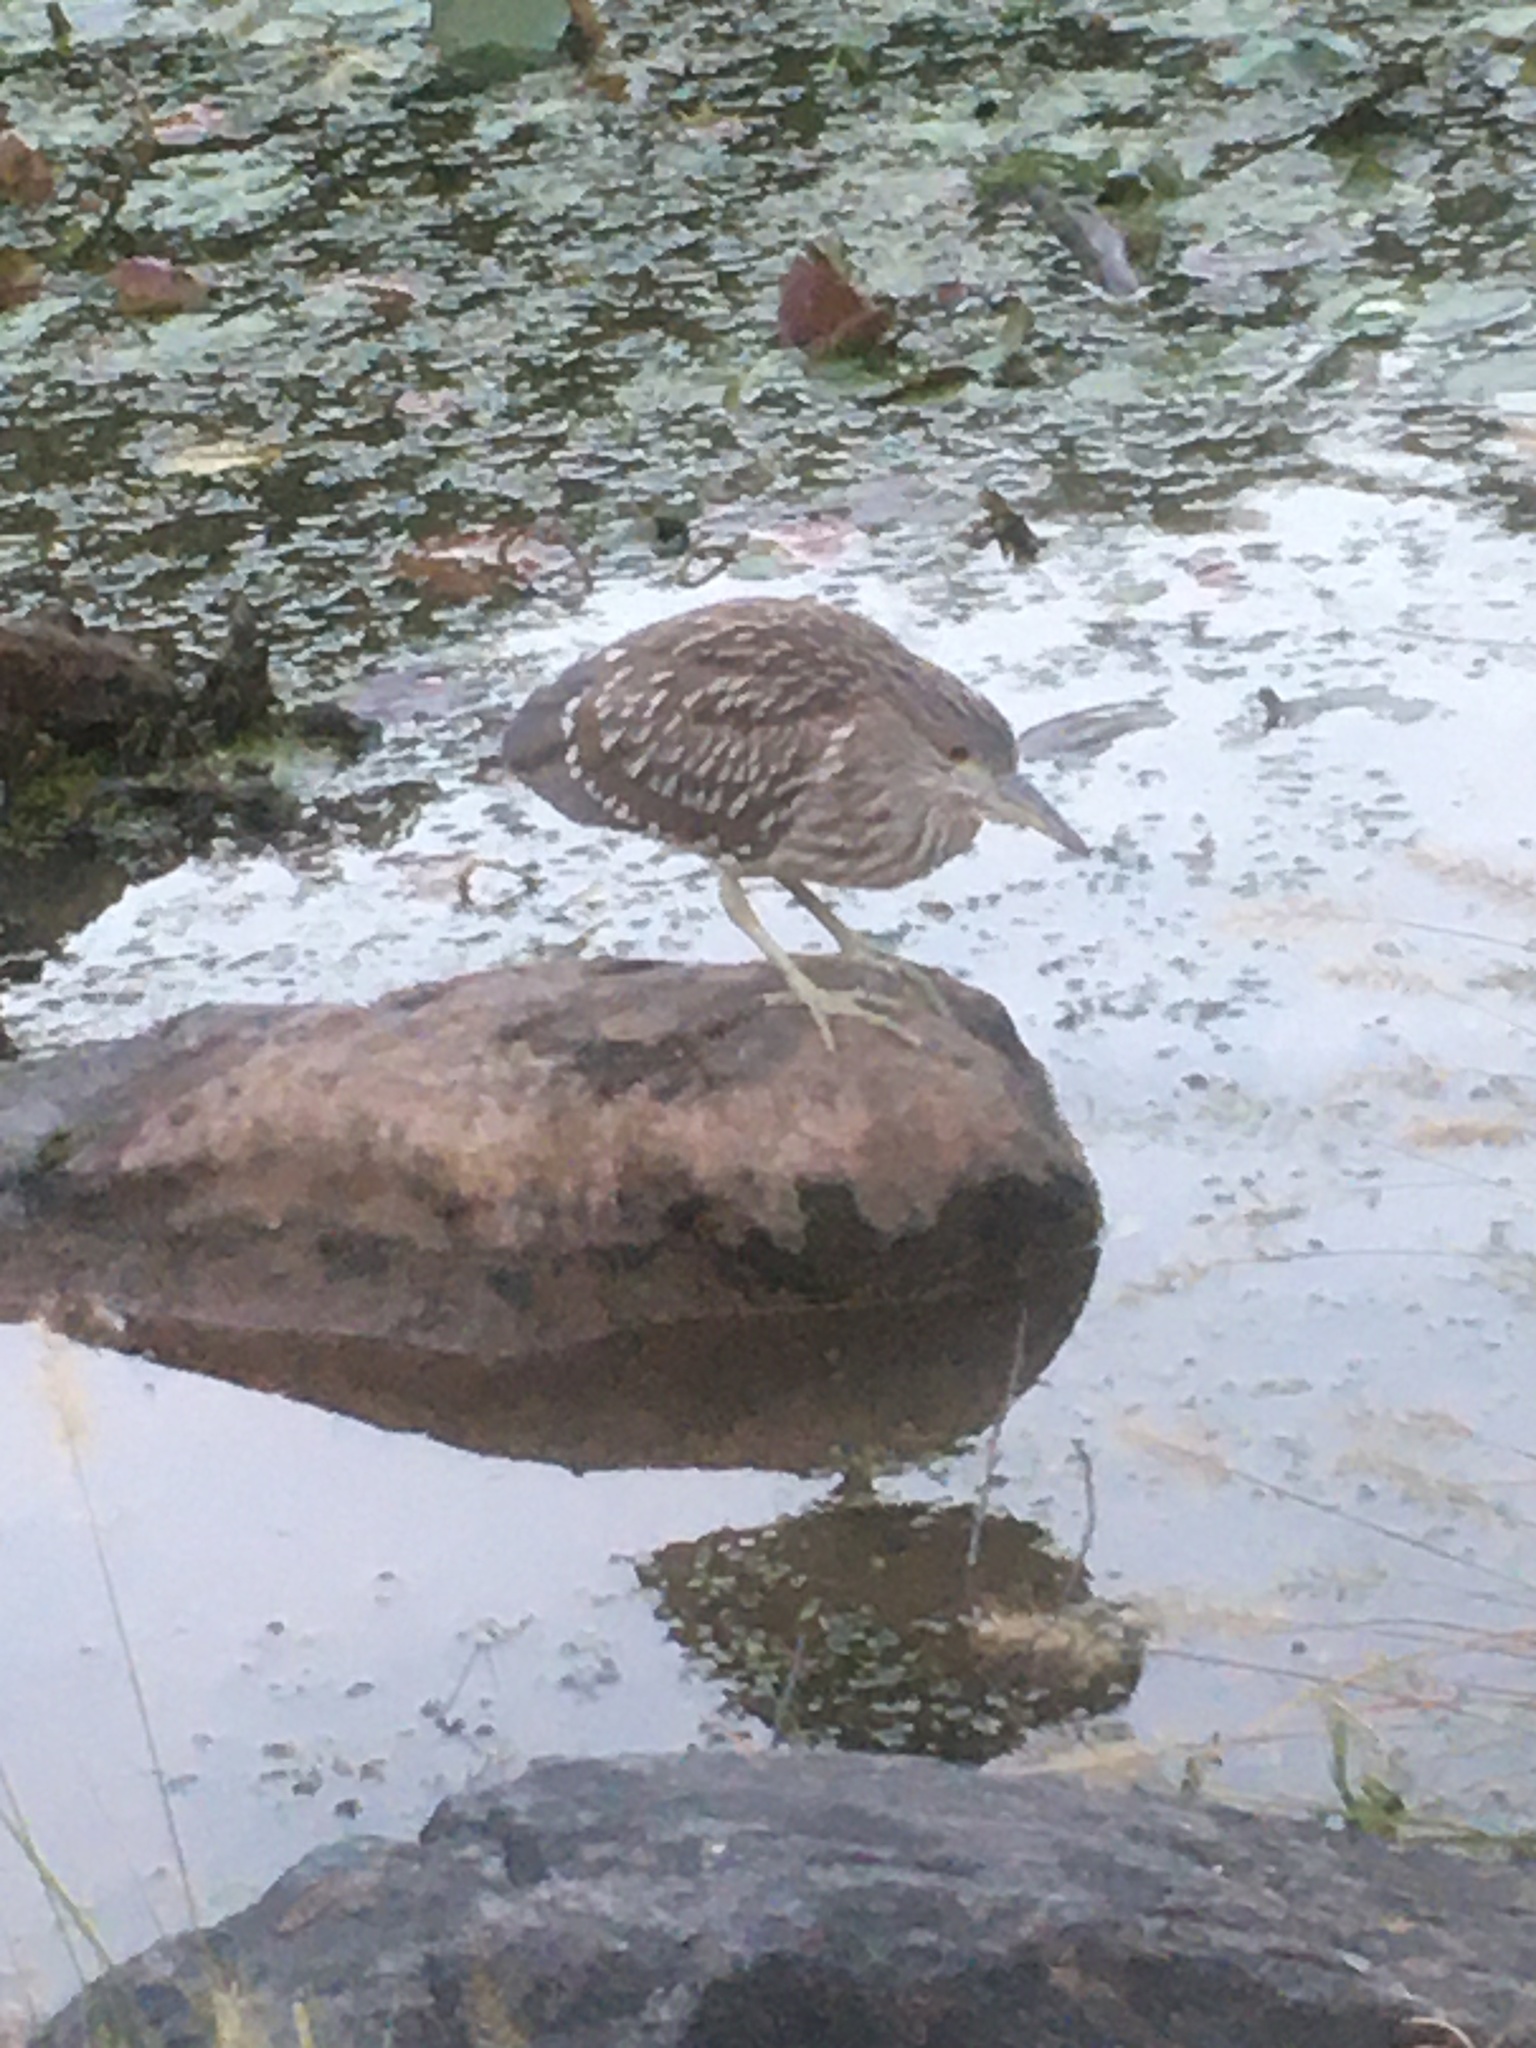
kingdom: Animalia
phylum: Chordata
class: Aves
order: Pelecaniformes
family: Ardeidae
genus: Nycticorax
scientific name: Nycticorax nycticorax
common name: Black-crowned night heron
